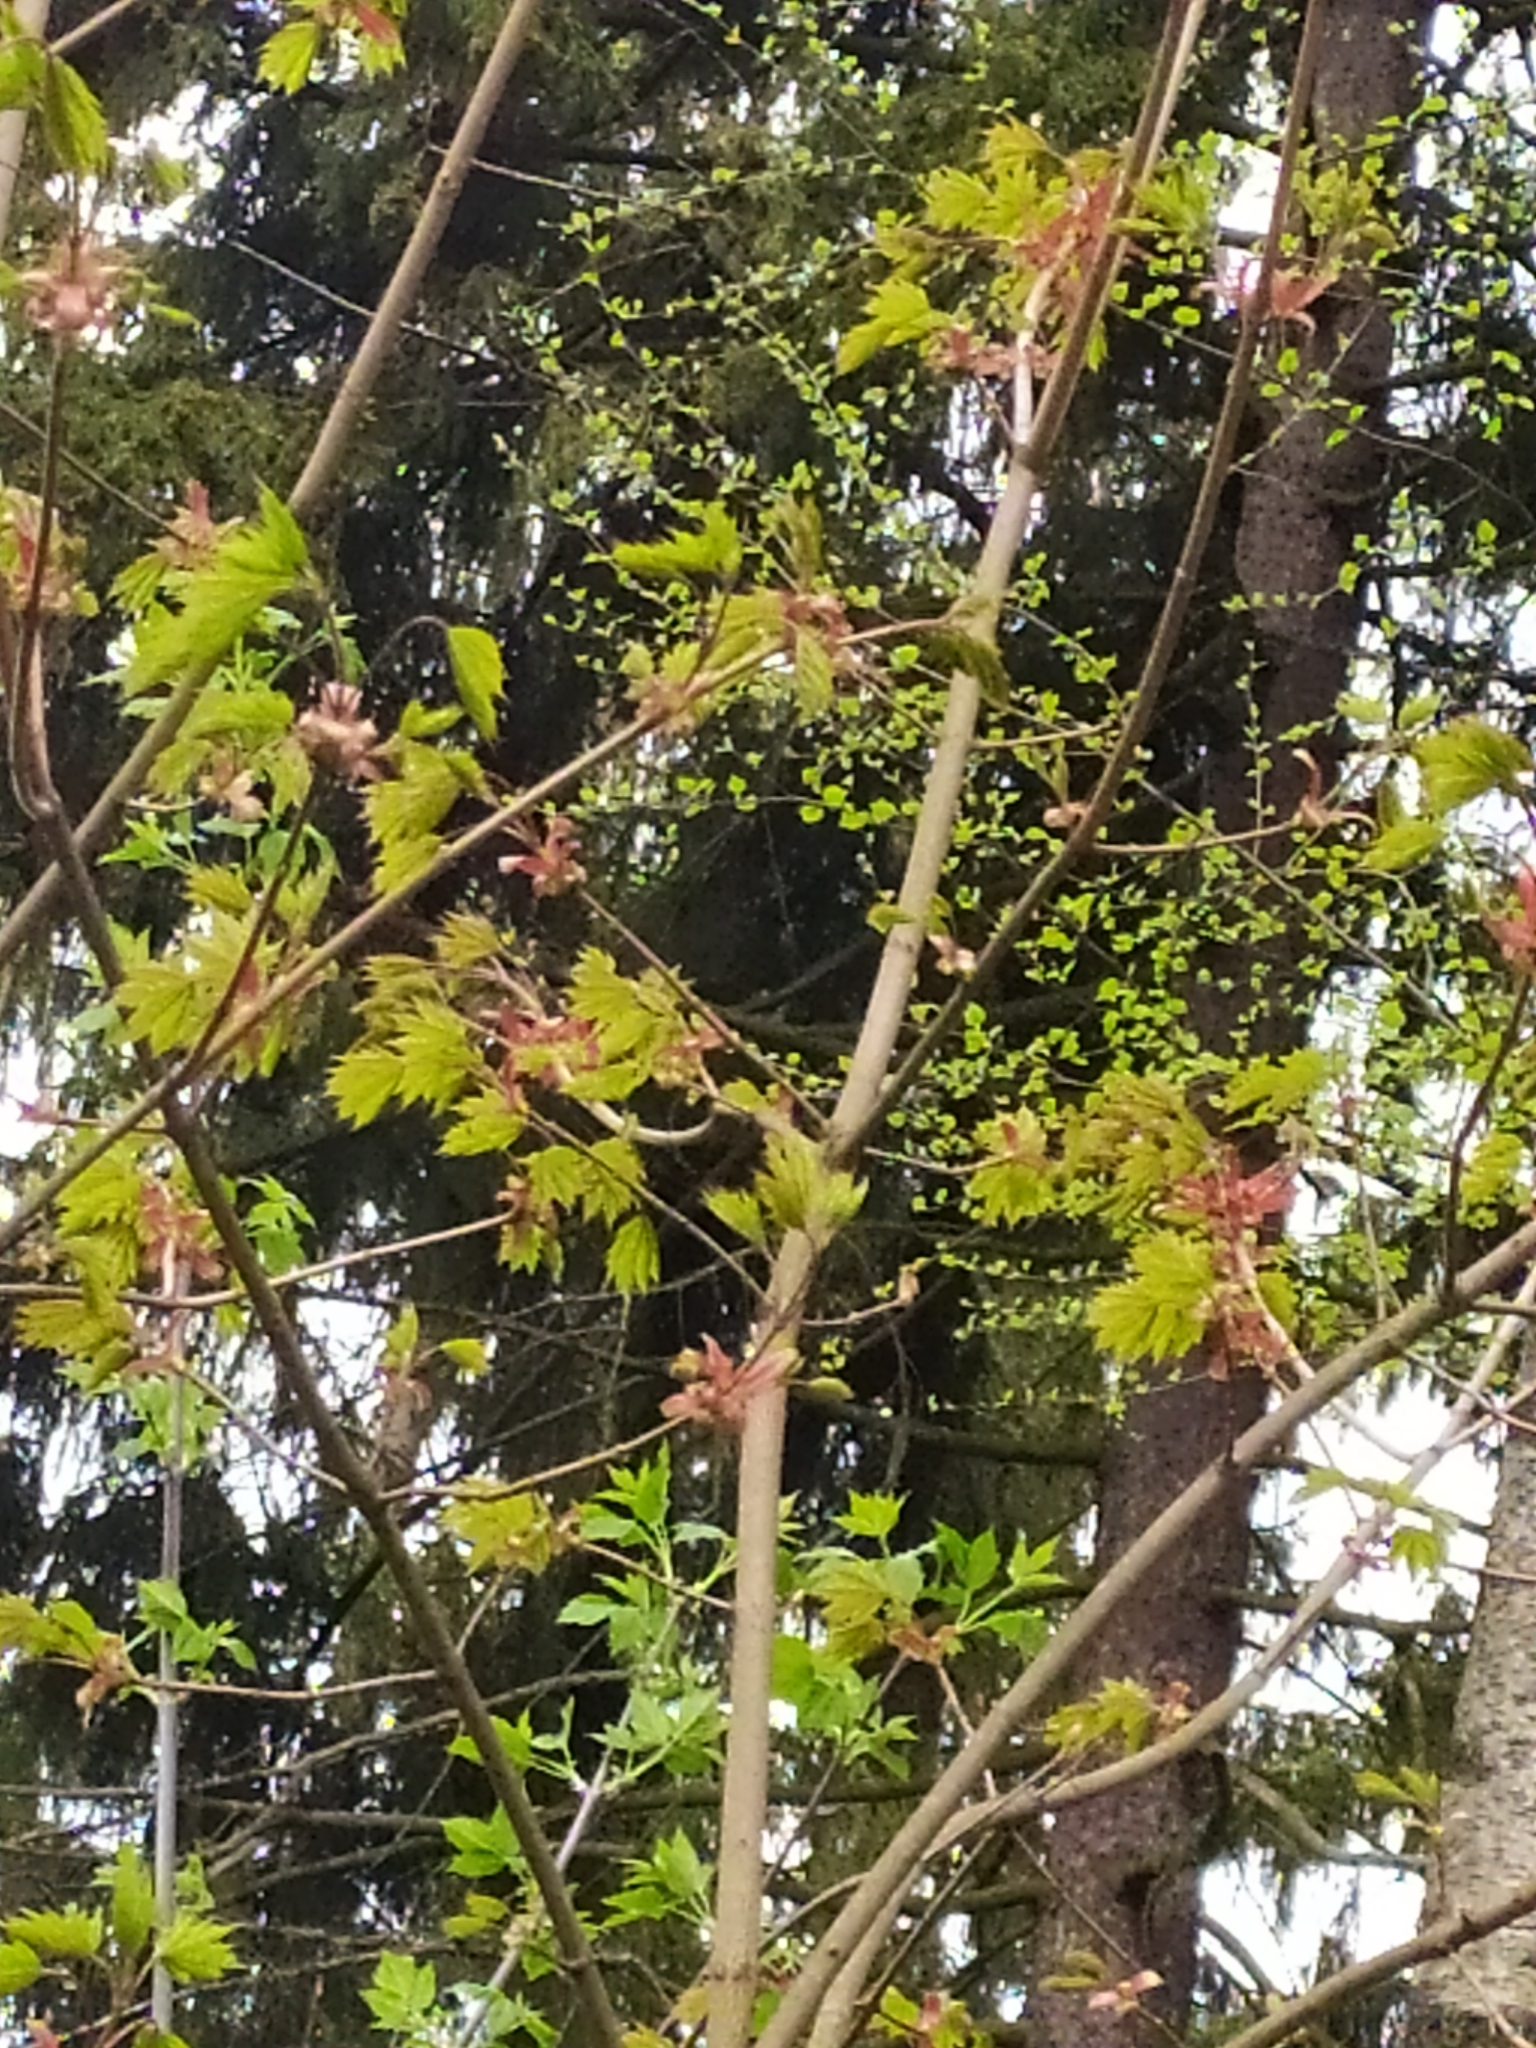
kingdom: Plantae
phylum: Tracheophyta
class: Magnoliopsida
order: Sapindales
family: Sapindaceae
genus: Acer
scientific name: Acer platanoides
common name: Norway maple
